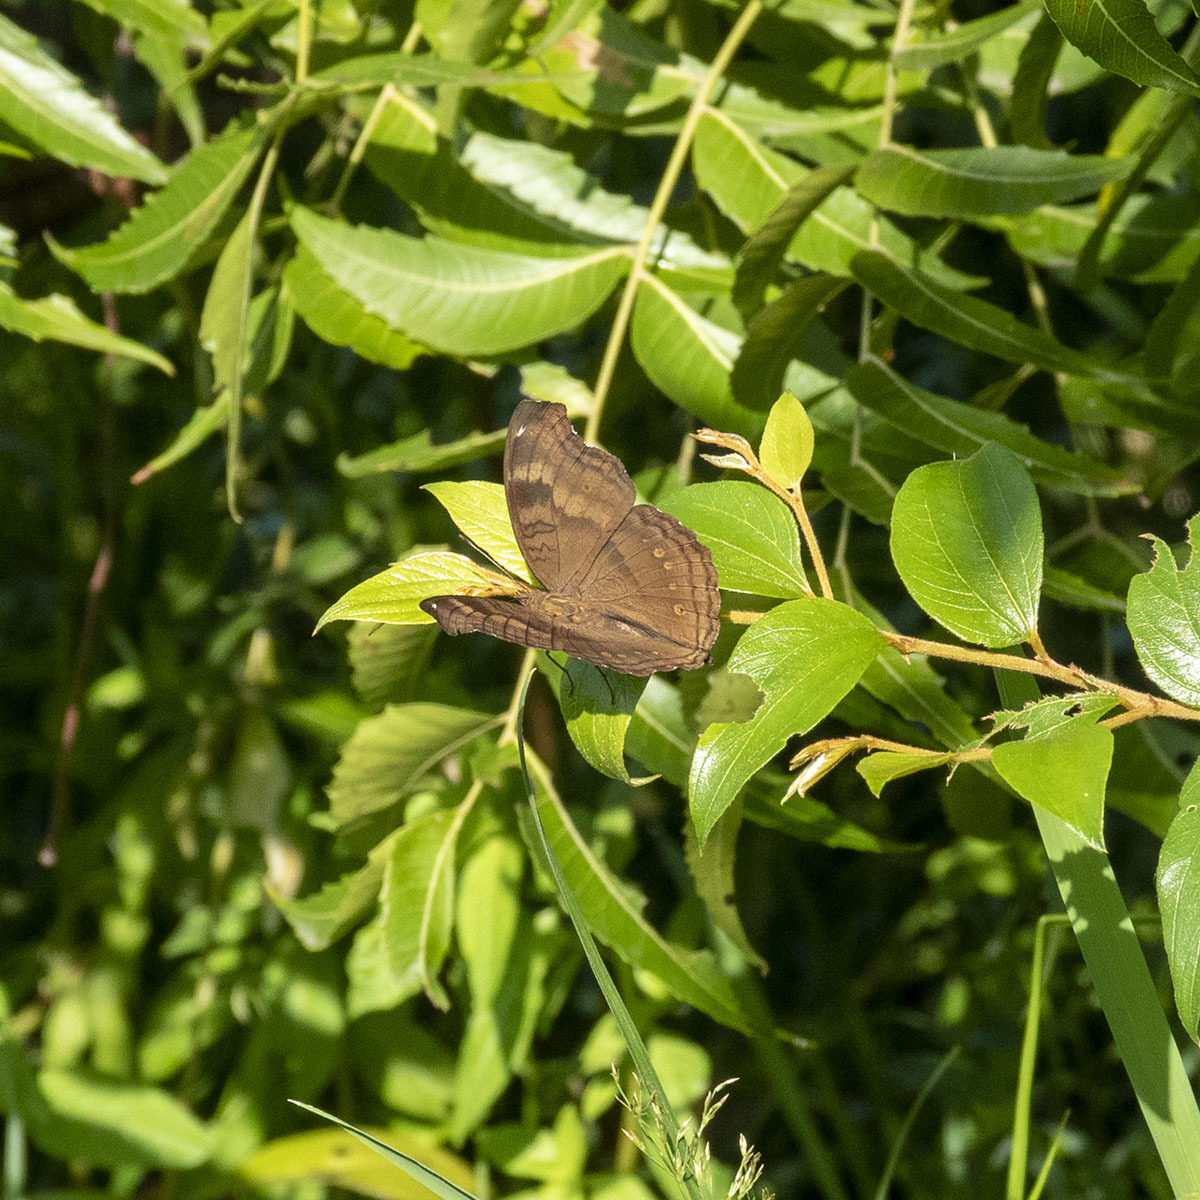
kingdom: Animalia
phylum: Arthropoda
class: Insecta
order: Lepidoptera
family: Nymphalidae
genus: Junonia
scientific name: Junonia iphita
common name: Chocolate pansy
